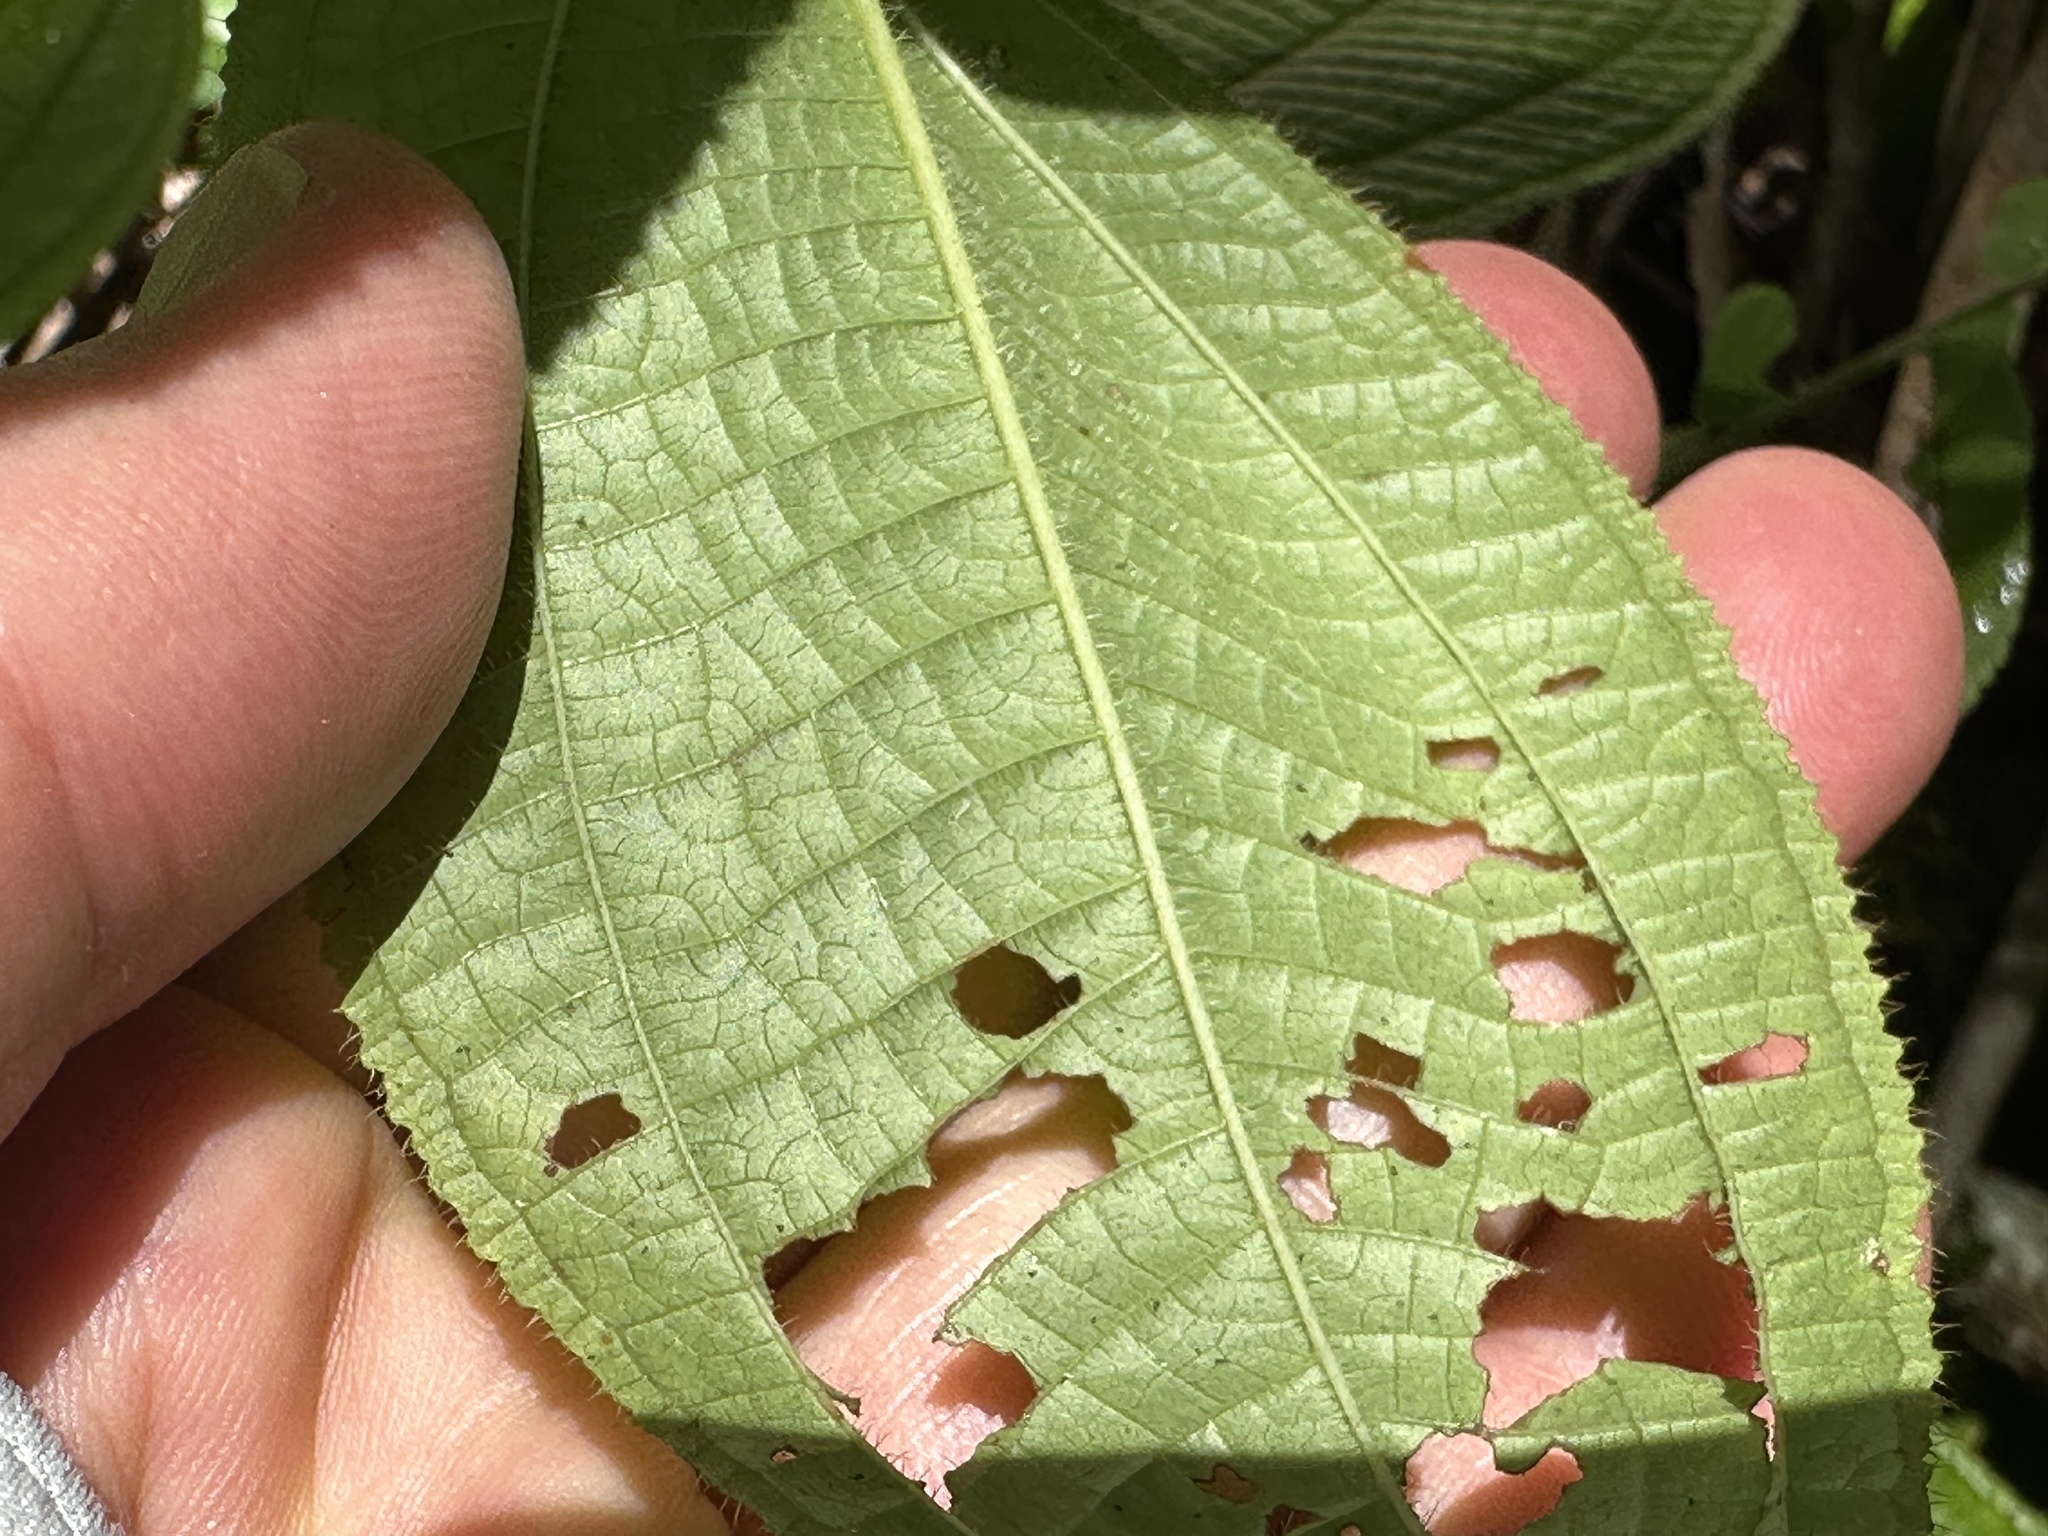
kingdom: Plantae
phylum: Tracheophyta
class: Magnoliopsida
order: Myrtales
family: Melastomataceae
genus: Miconia
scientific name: Miconia crenata
